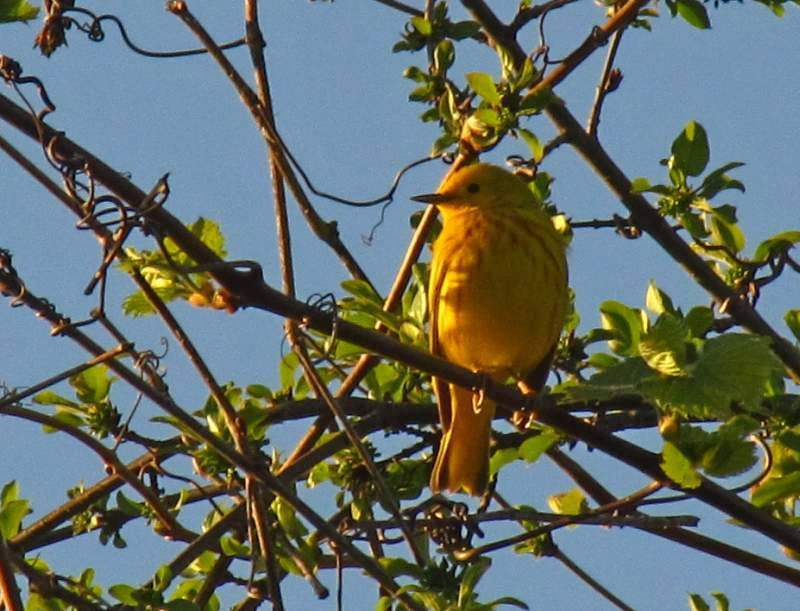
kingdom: Animalia
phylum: Chordata
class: Aves
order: Passeriformes
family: Parulidae
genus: Setophaga
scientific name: Setophaga petechia
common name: Yellow warbler
